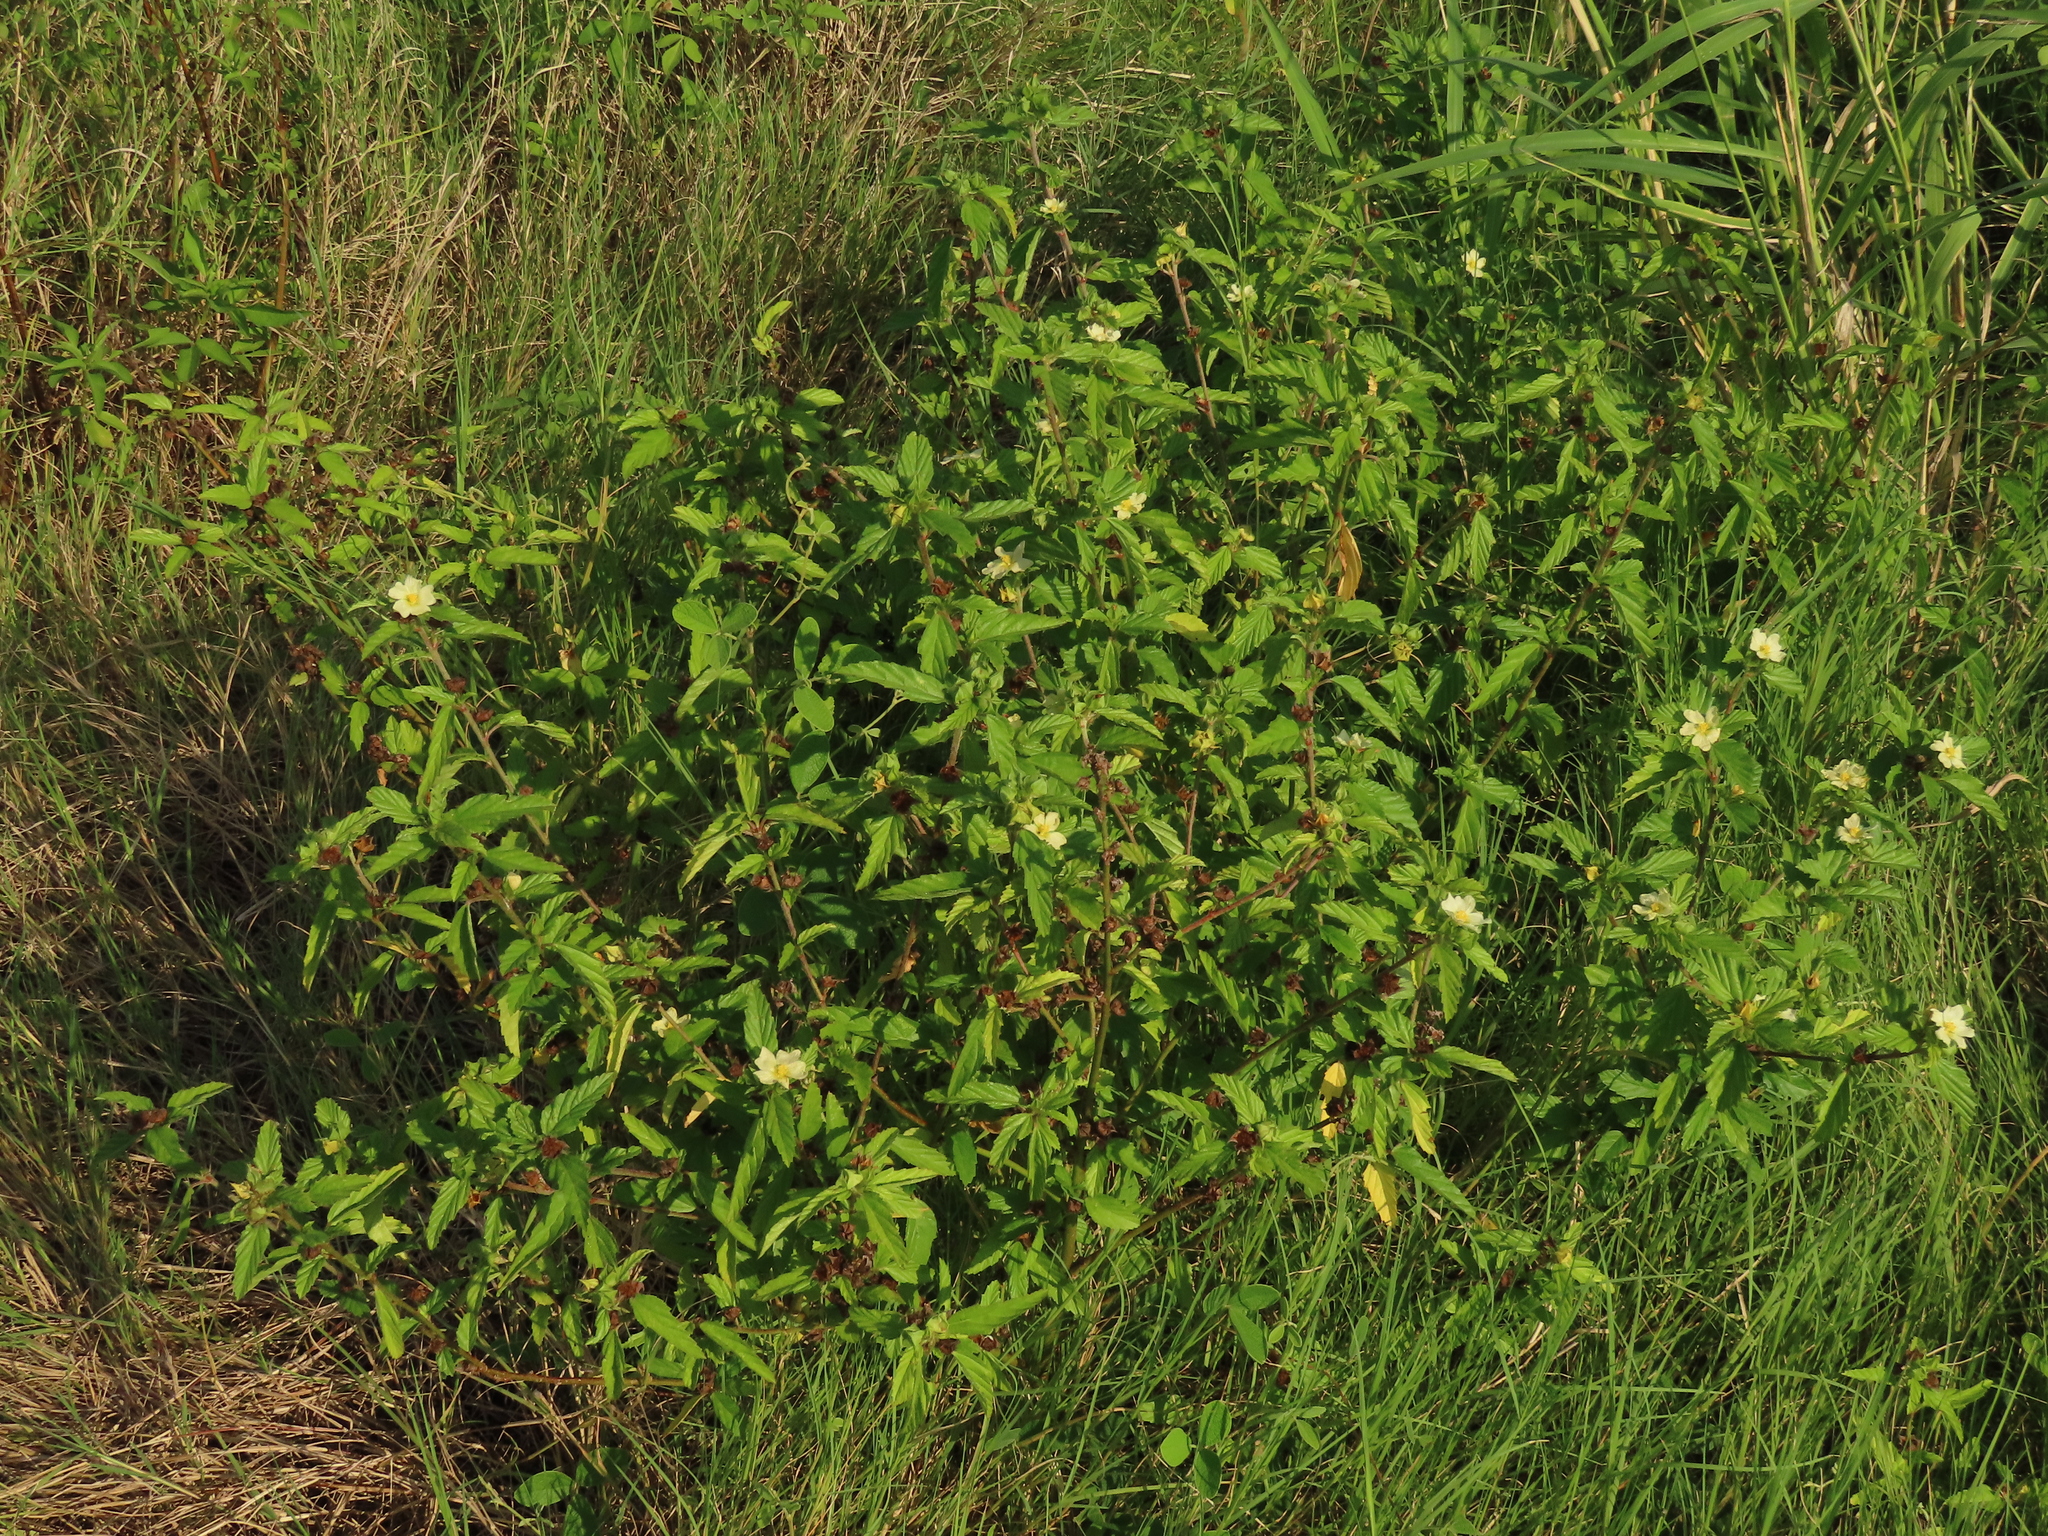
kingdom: Plantae
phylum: Tracheophyta
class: Magnoliopsida
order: Malvales
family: Malvaceae
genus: Malvastrum
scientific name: Malvastrum coromandelianum
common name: Threelobe false mallow
